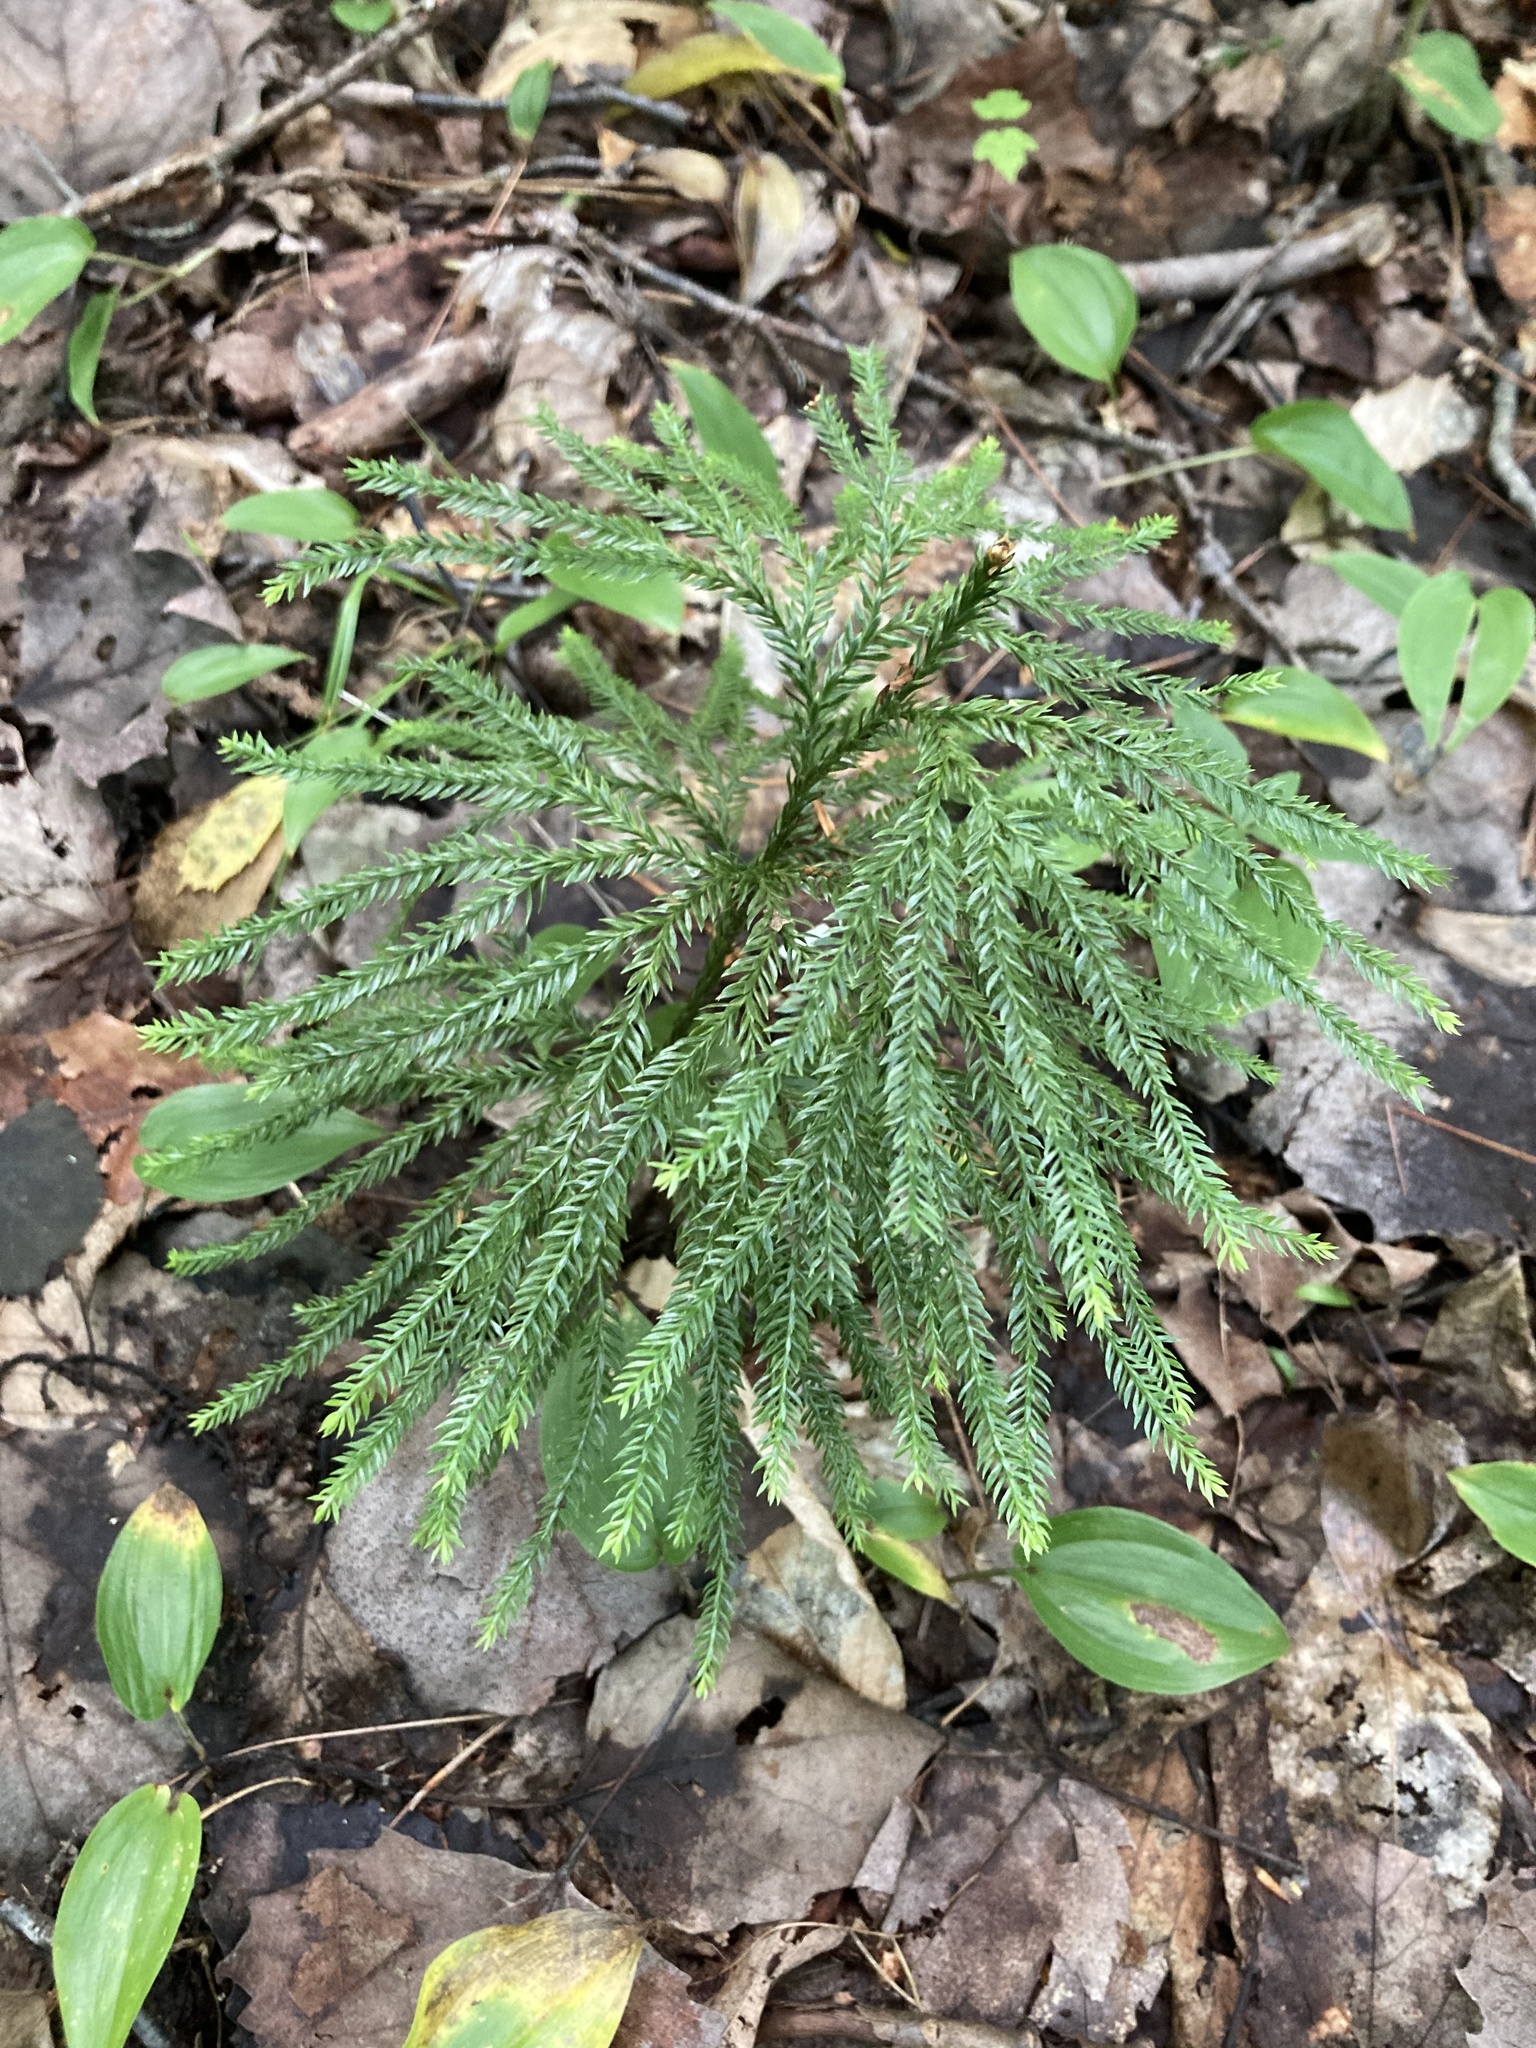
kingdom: Plantae
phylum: Tracheophyta
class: Lycopodiopsida
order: Lycopodiales
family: Lycopodiaceae
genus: Dendrolycopodium
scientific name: Dendrolycopodium obscurum
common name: Common ground-pine
